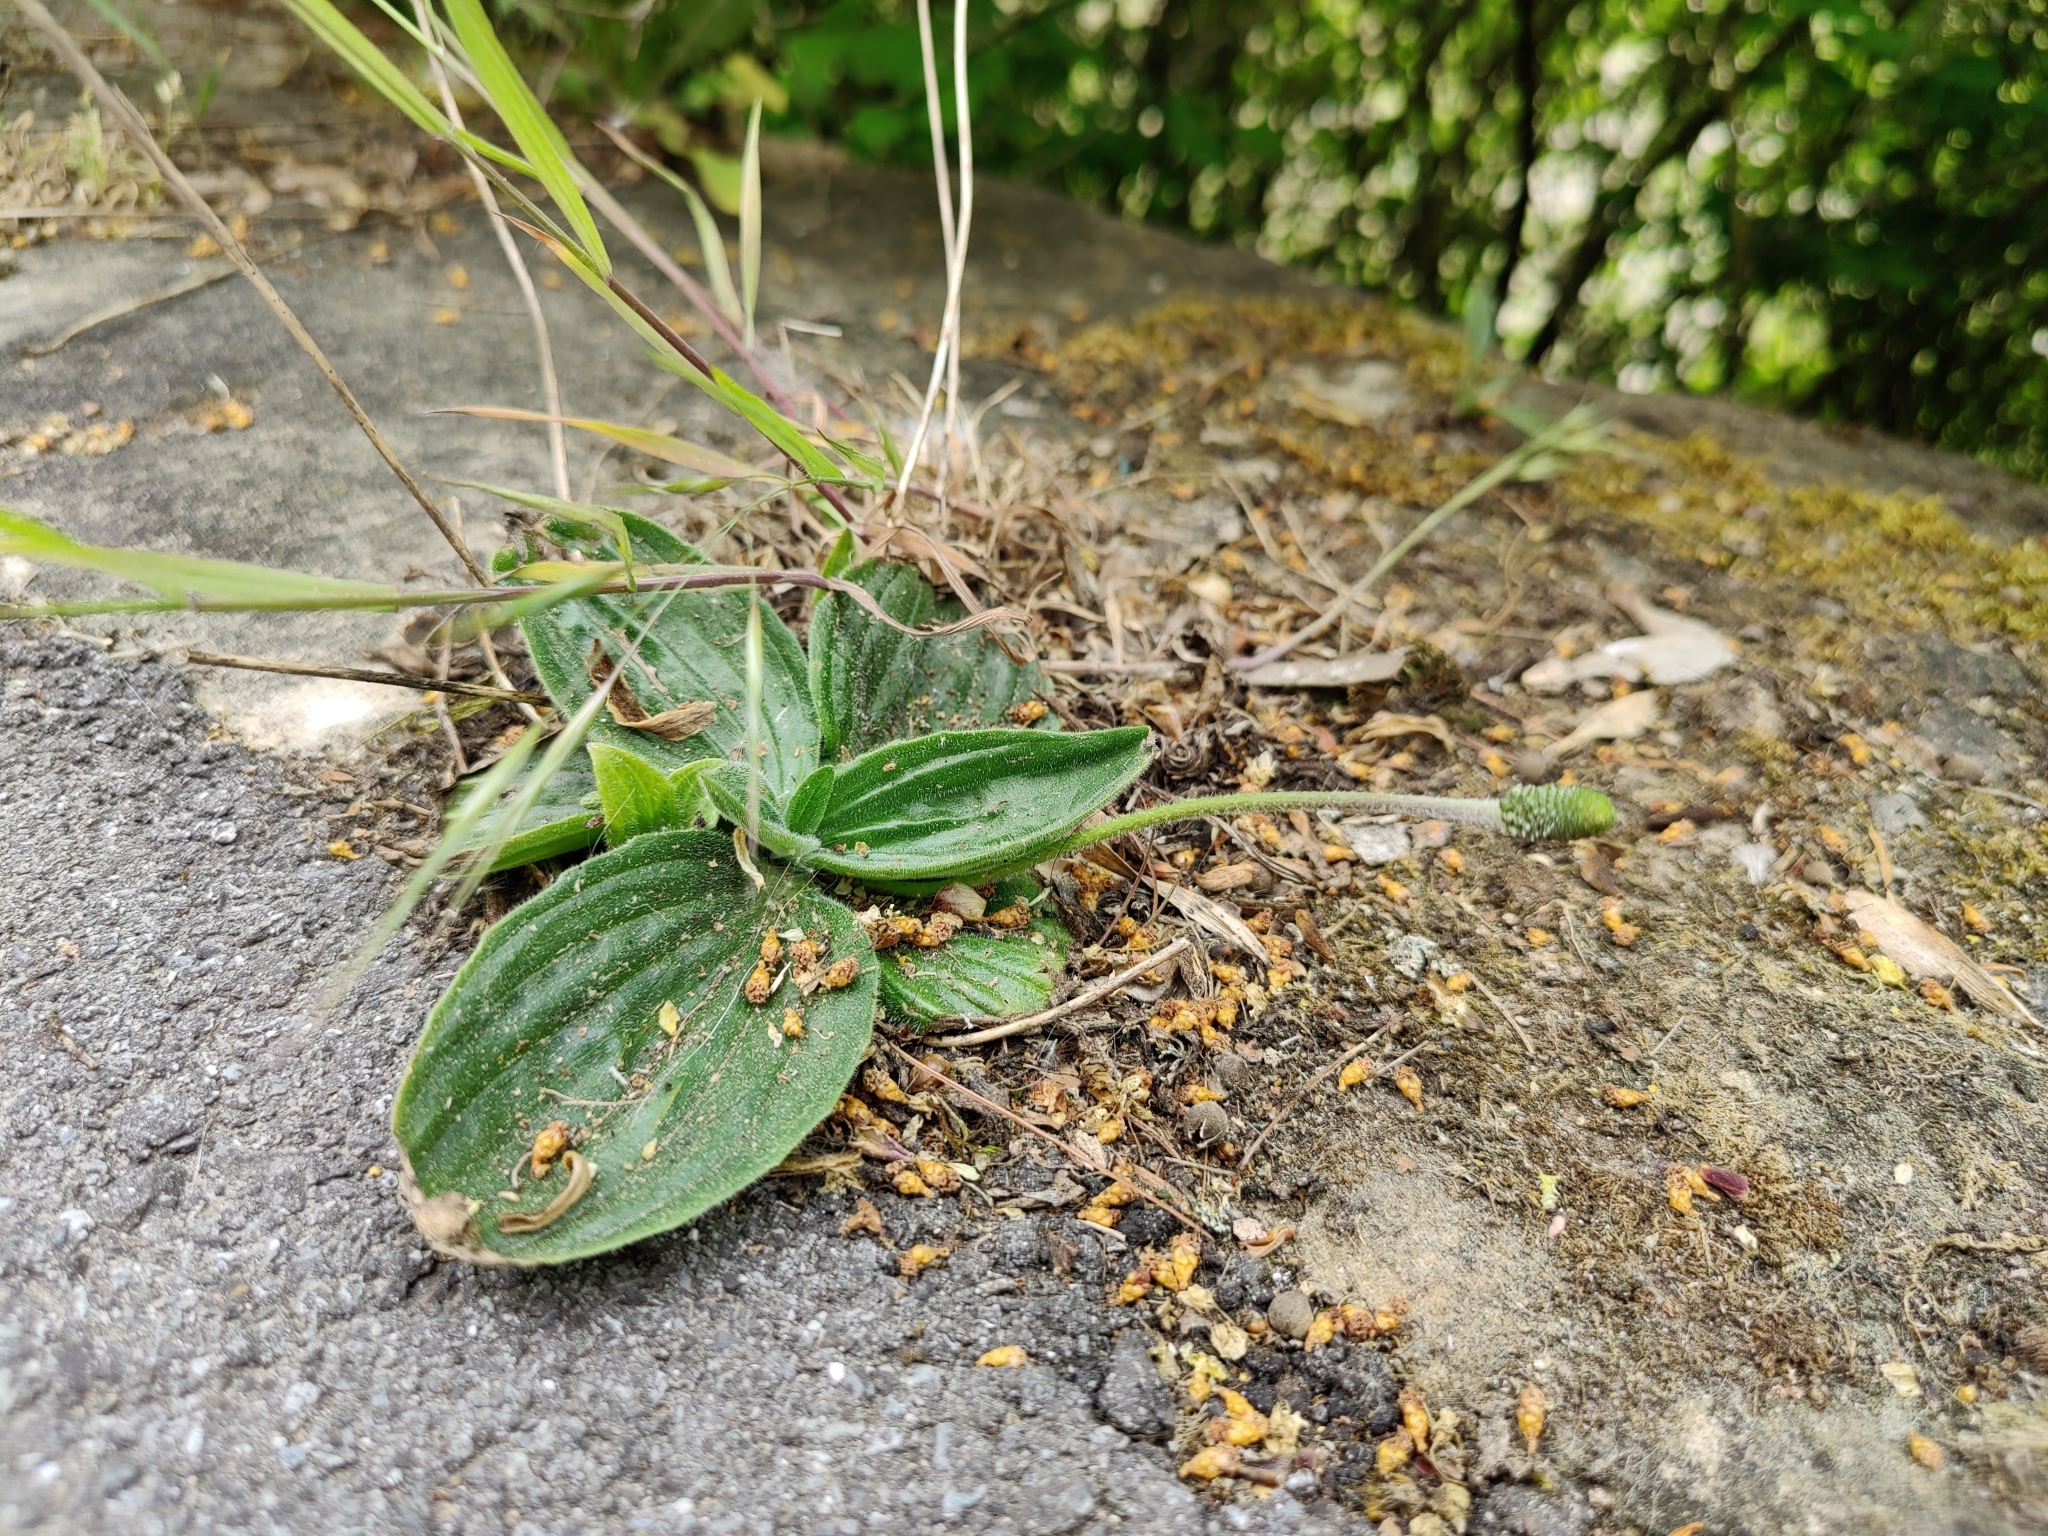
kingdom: Plantae
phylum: Tracheophyta
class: Magnoliopsida
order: Lamiales
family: Plantaginaceae
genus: Plantago
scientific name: Plantago media
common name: Hoary plantain
